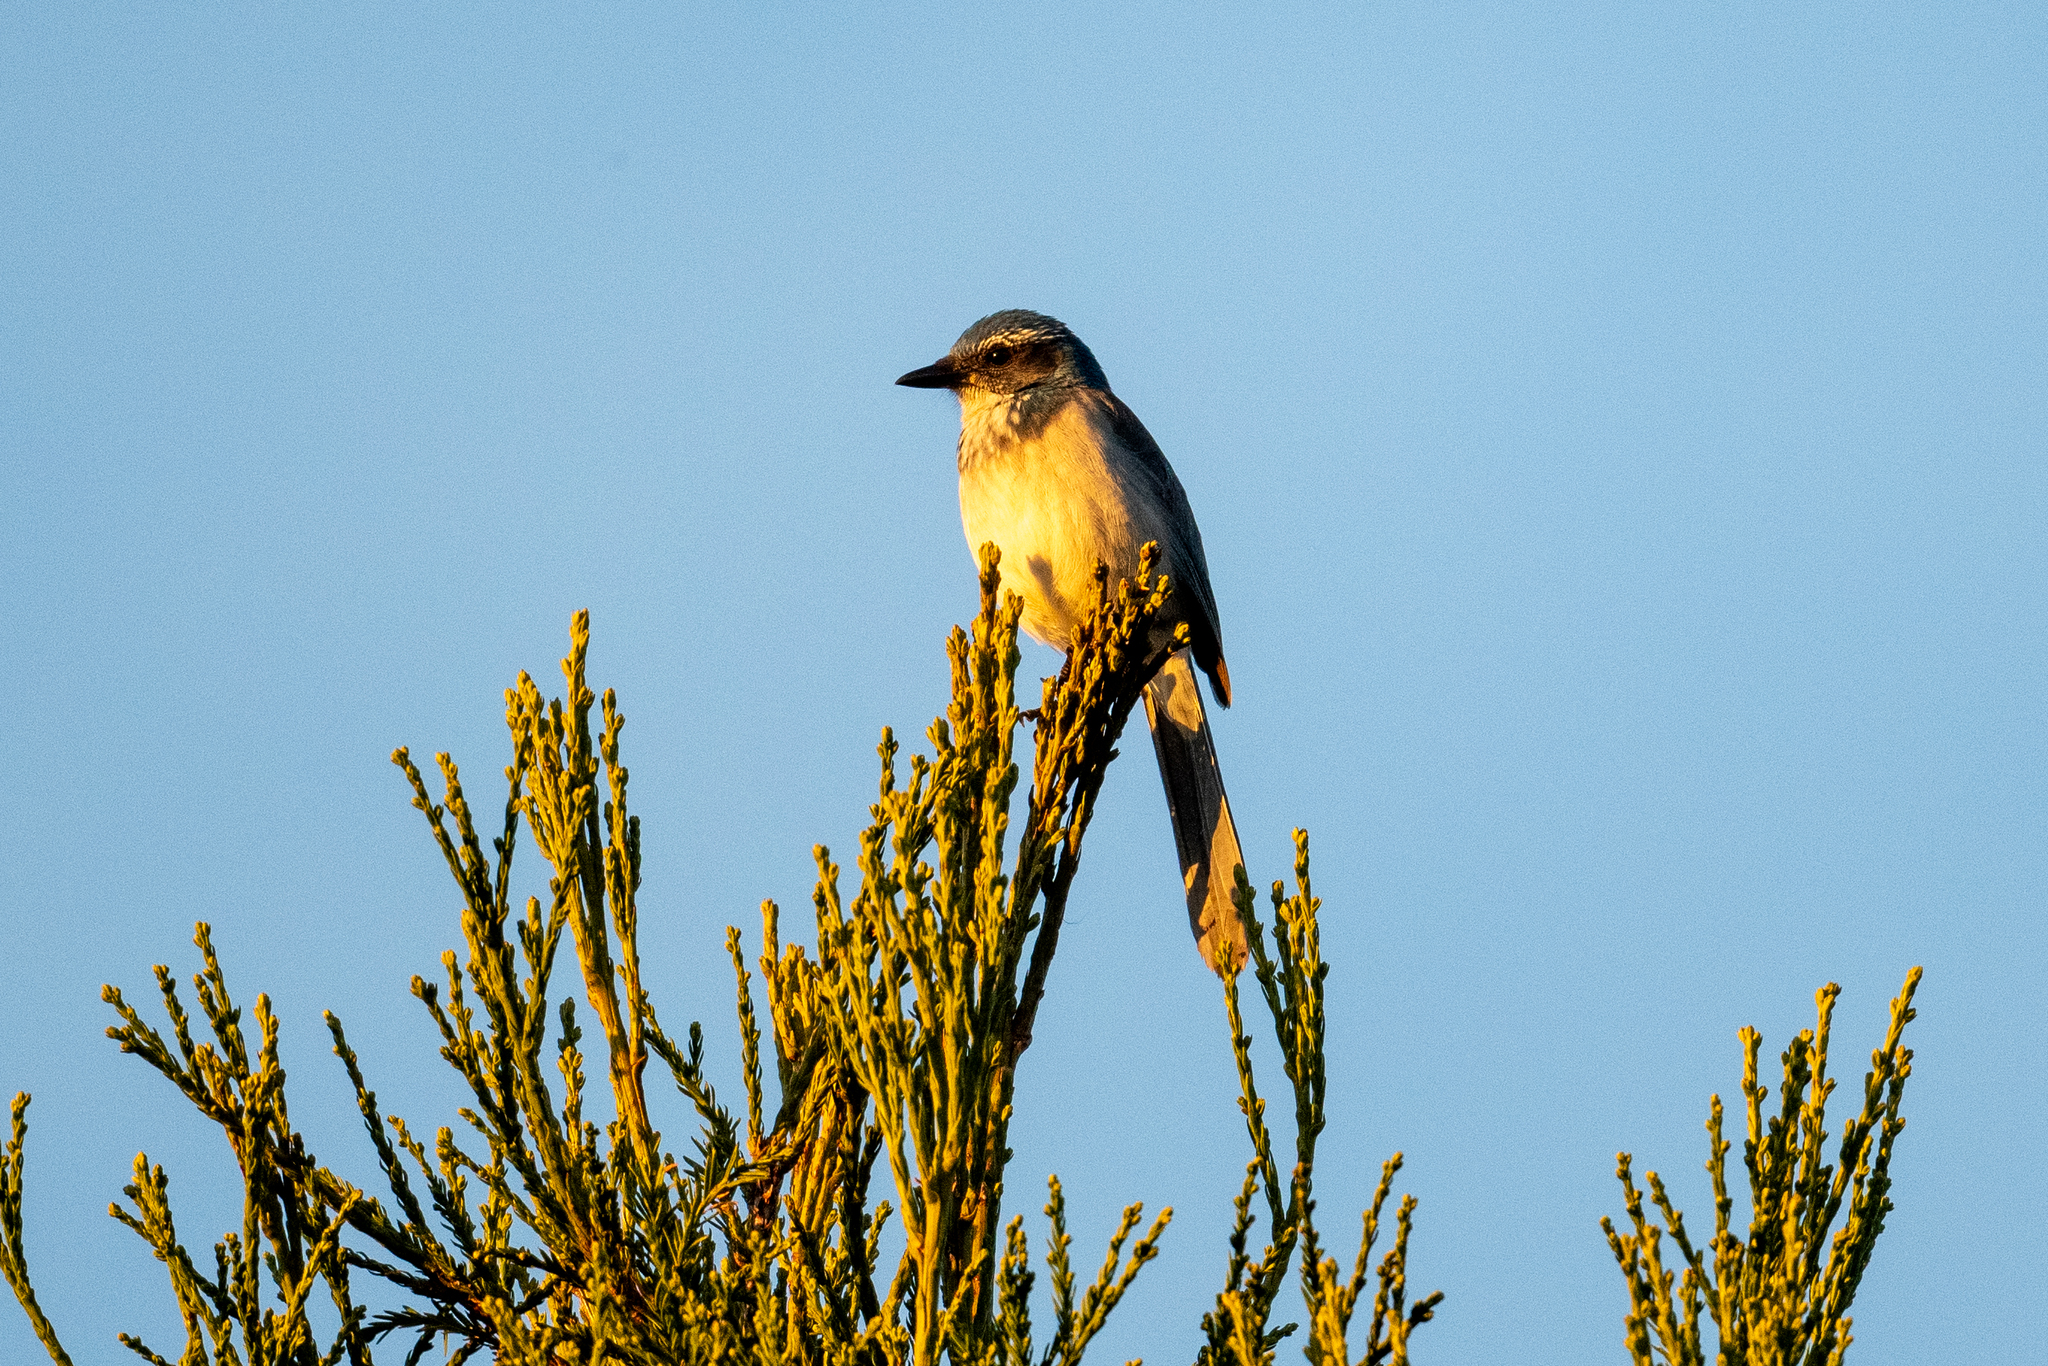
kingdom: Animalia
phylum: Chordata
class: Aves
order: Passeriformes
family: Corvidae
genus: Aphelocoma
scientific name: Aphelocoma californica
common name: California scrub-jay
